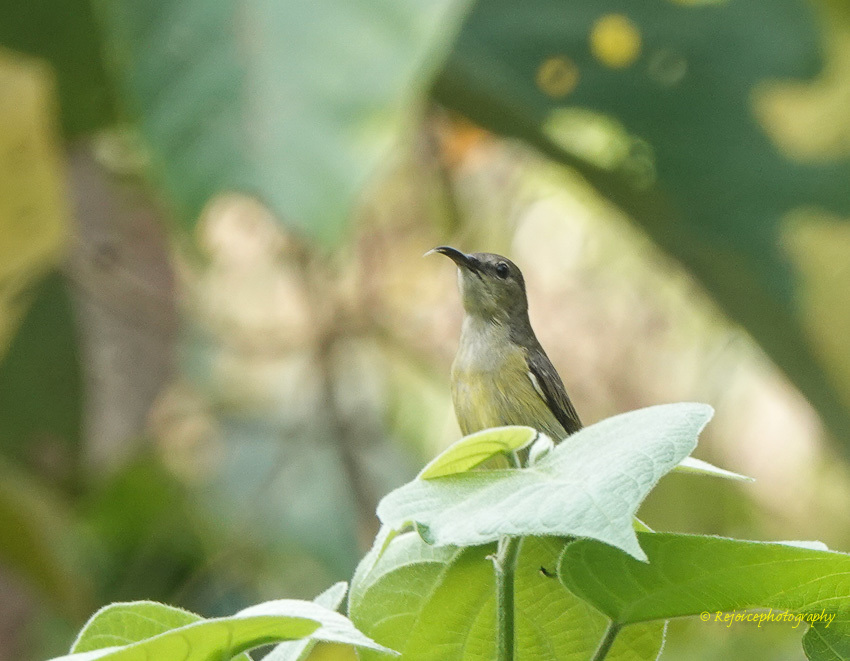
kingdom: Animalia
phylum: Chordata
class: Aves
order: Passeriformes
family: Nectariniidae
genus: Leptocoma
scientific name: Leptocoma brasiliana
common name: Van hasselt's sunbird
